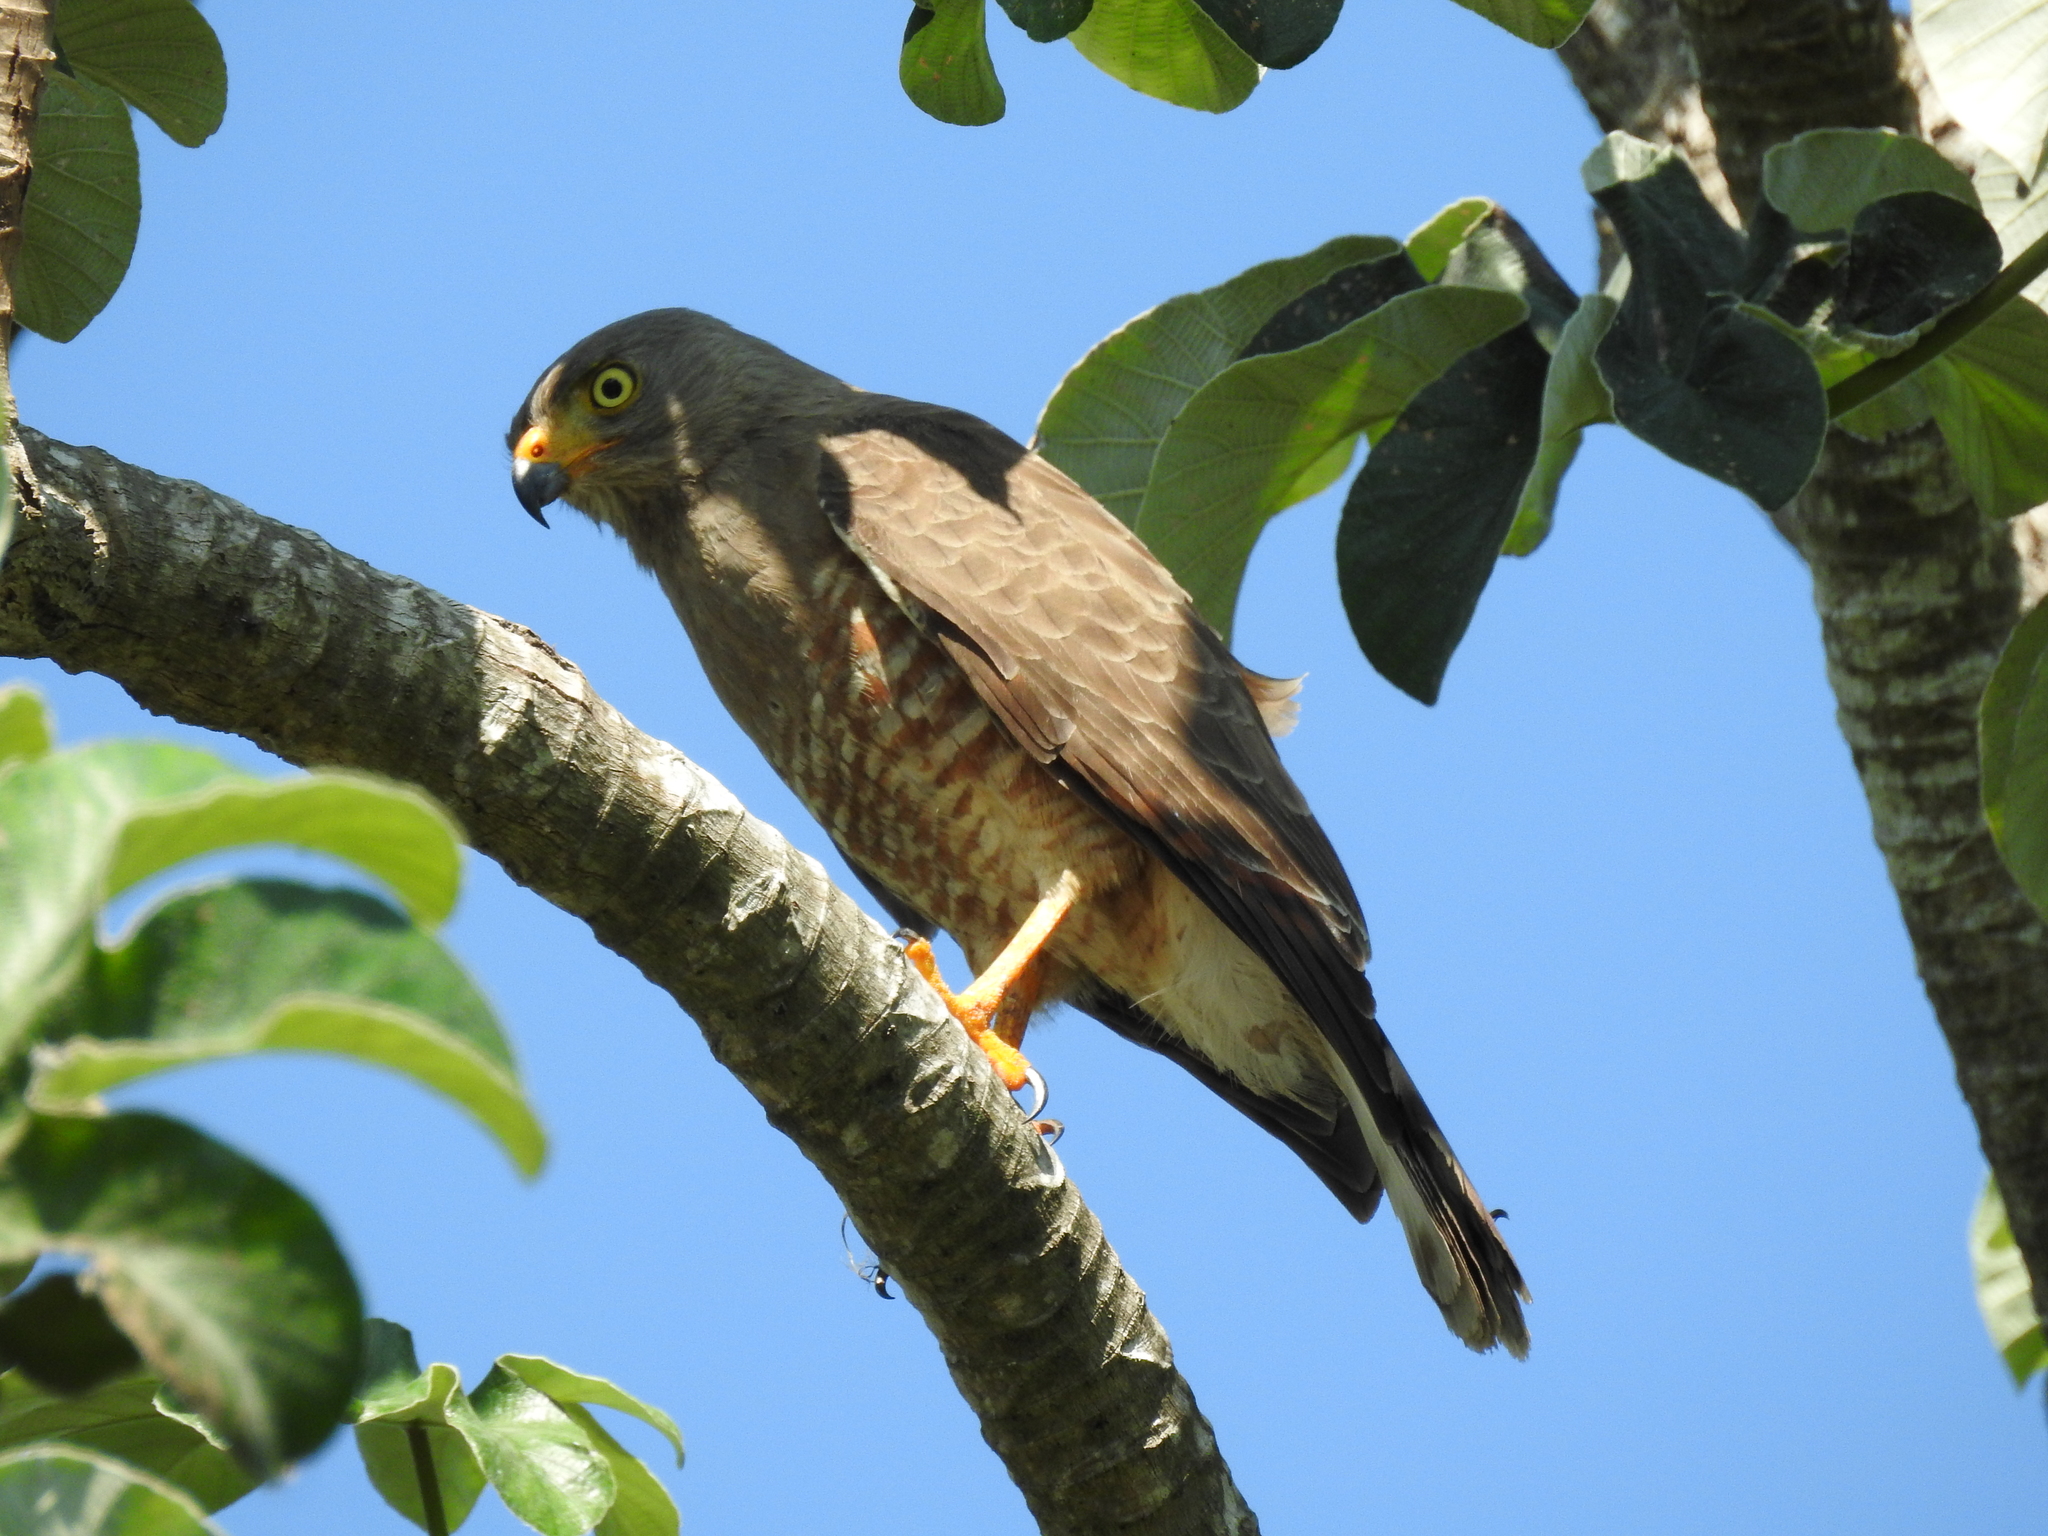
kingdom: Animalia
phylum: Chordata
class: Aves
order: Accipitriformes
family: Accipitridae
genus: Rupornis
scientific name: Rupornis magnirostris
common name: Roadside hawk
